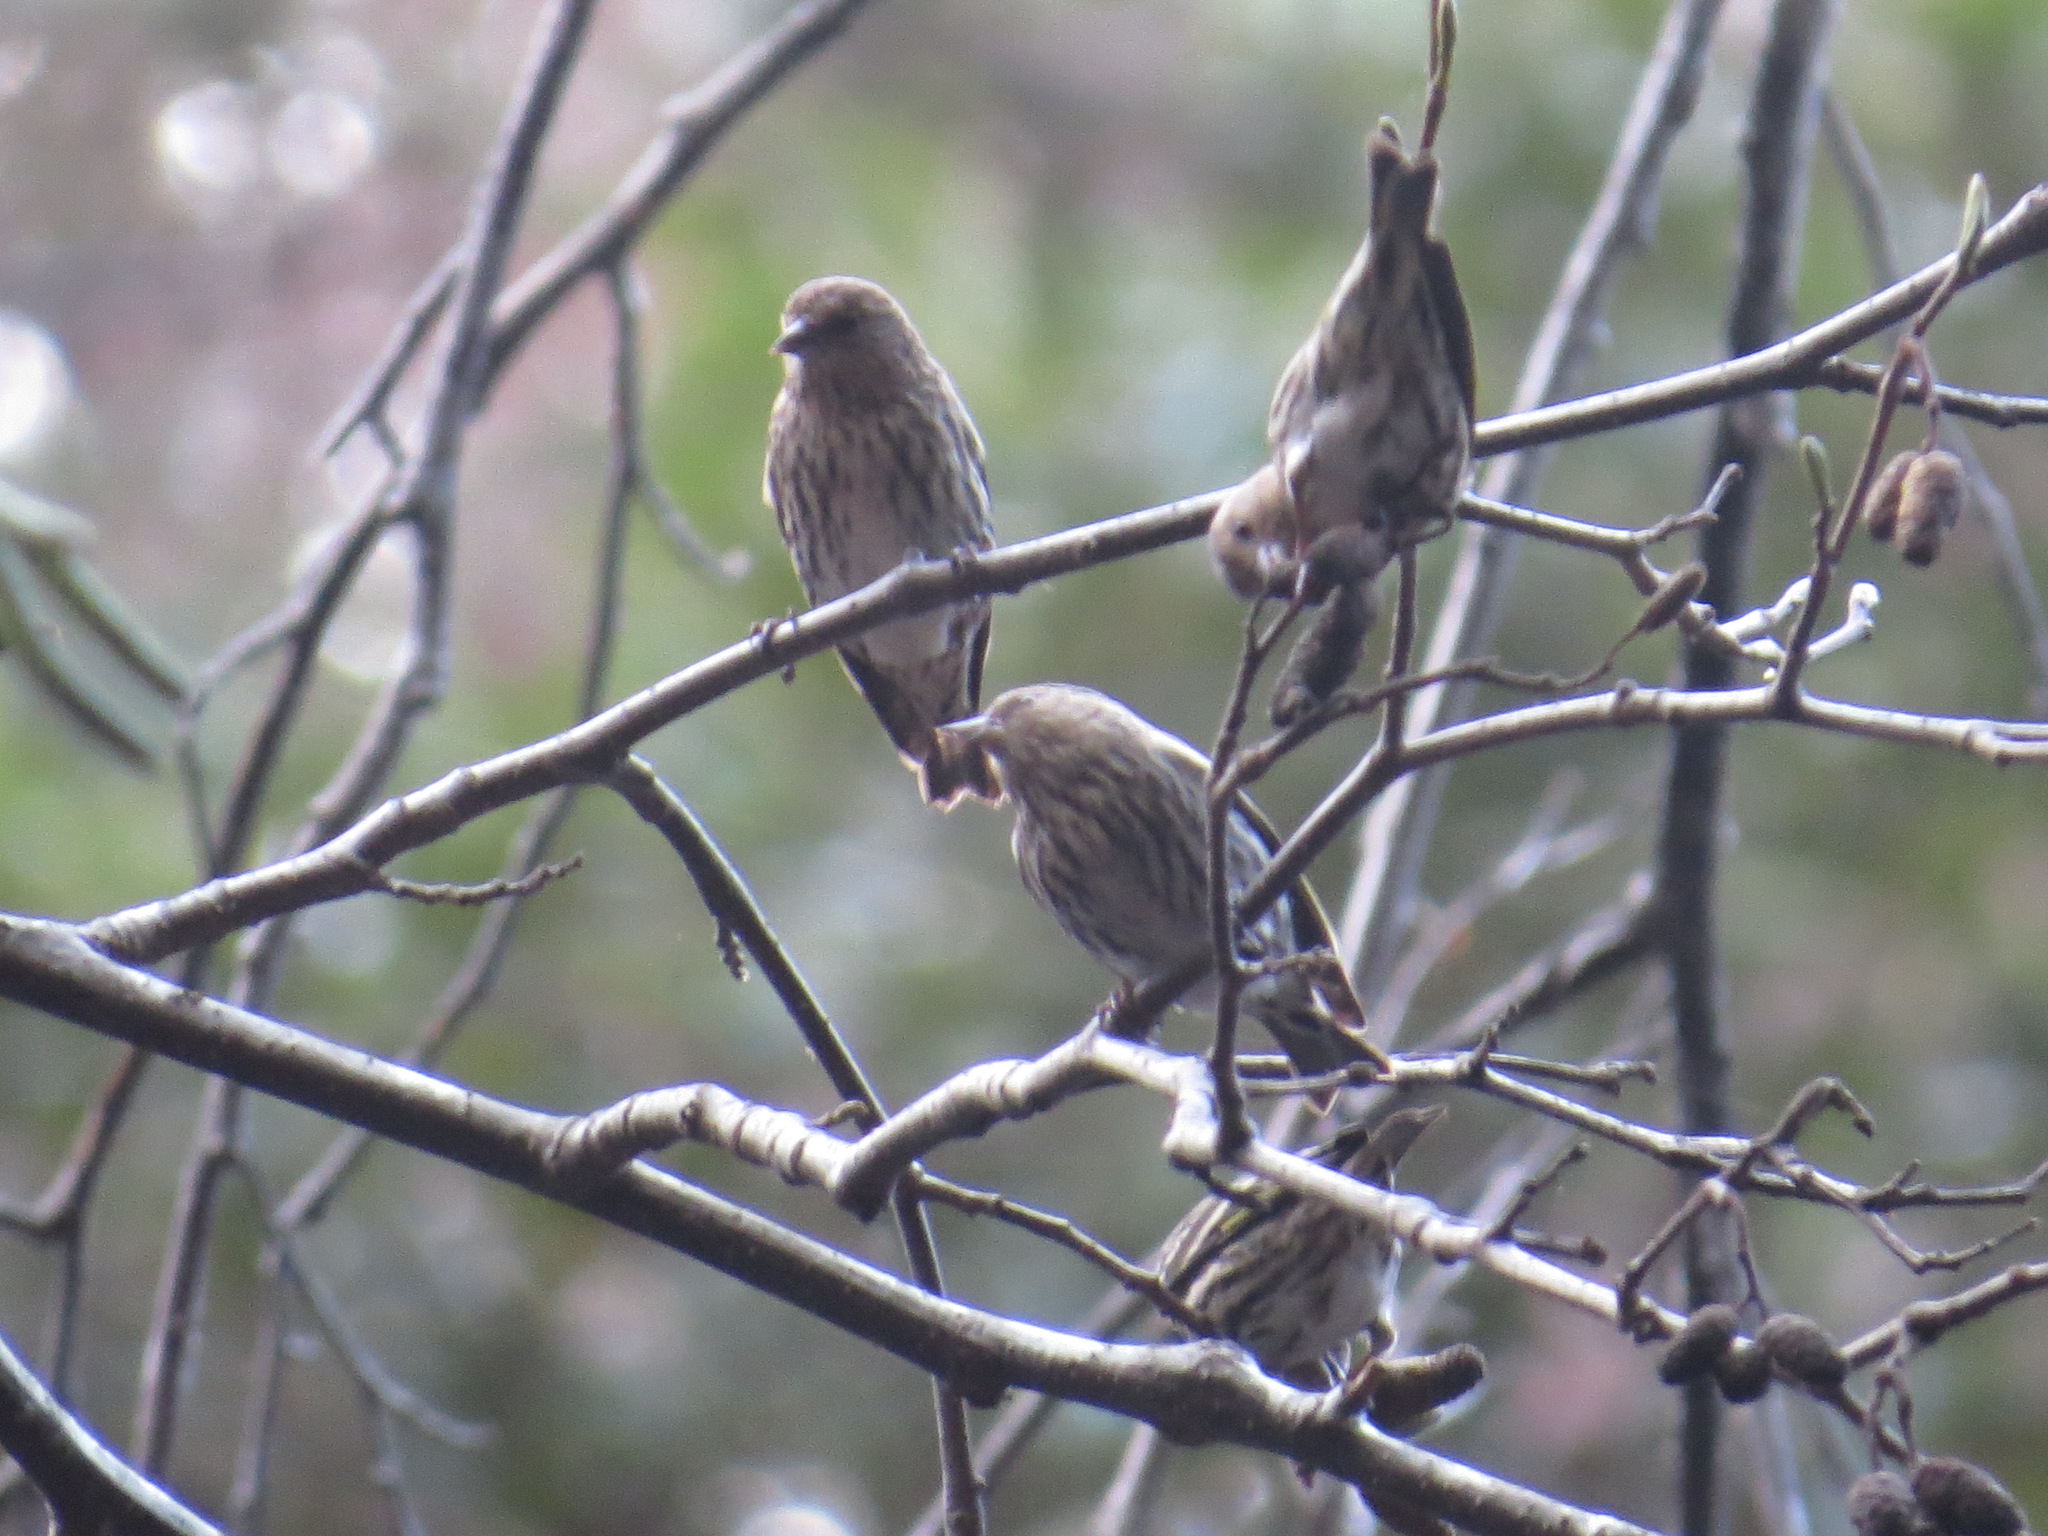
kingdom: Animalia
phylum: Chordata
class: Aves
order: Passeriformes
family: Fringillidae
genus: Spinus
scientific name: Spinus pinus
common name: Pine siskin
